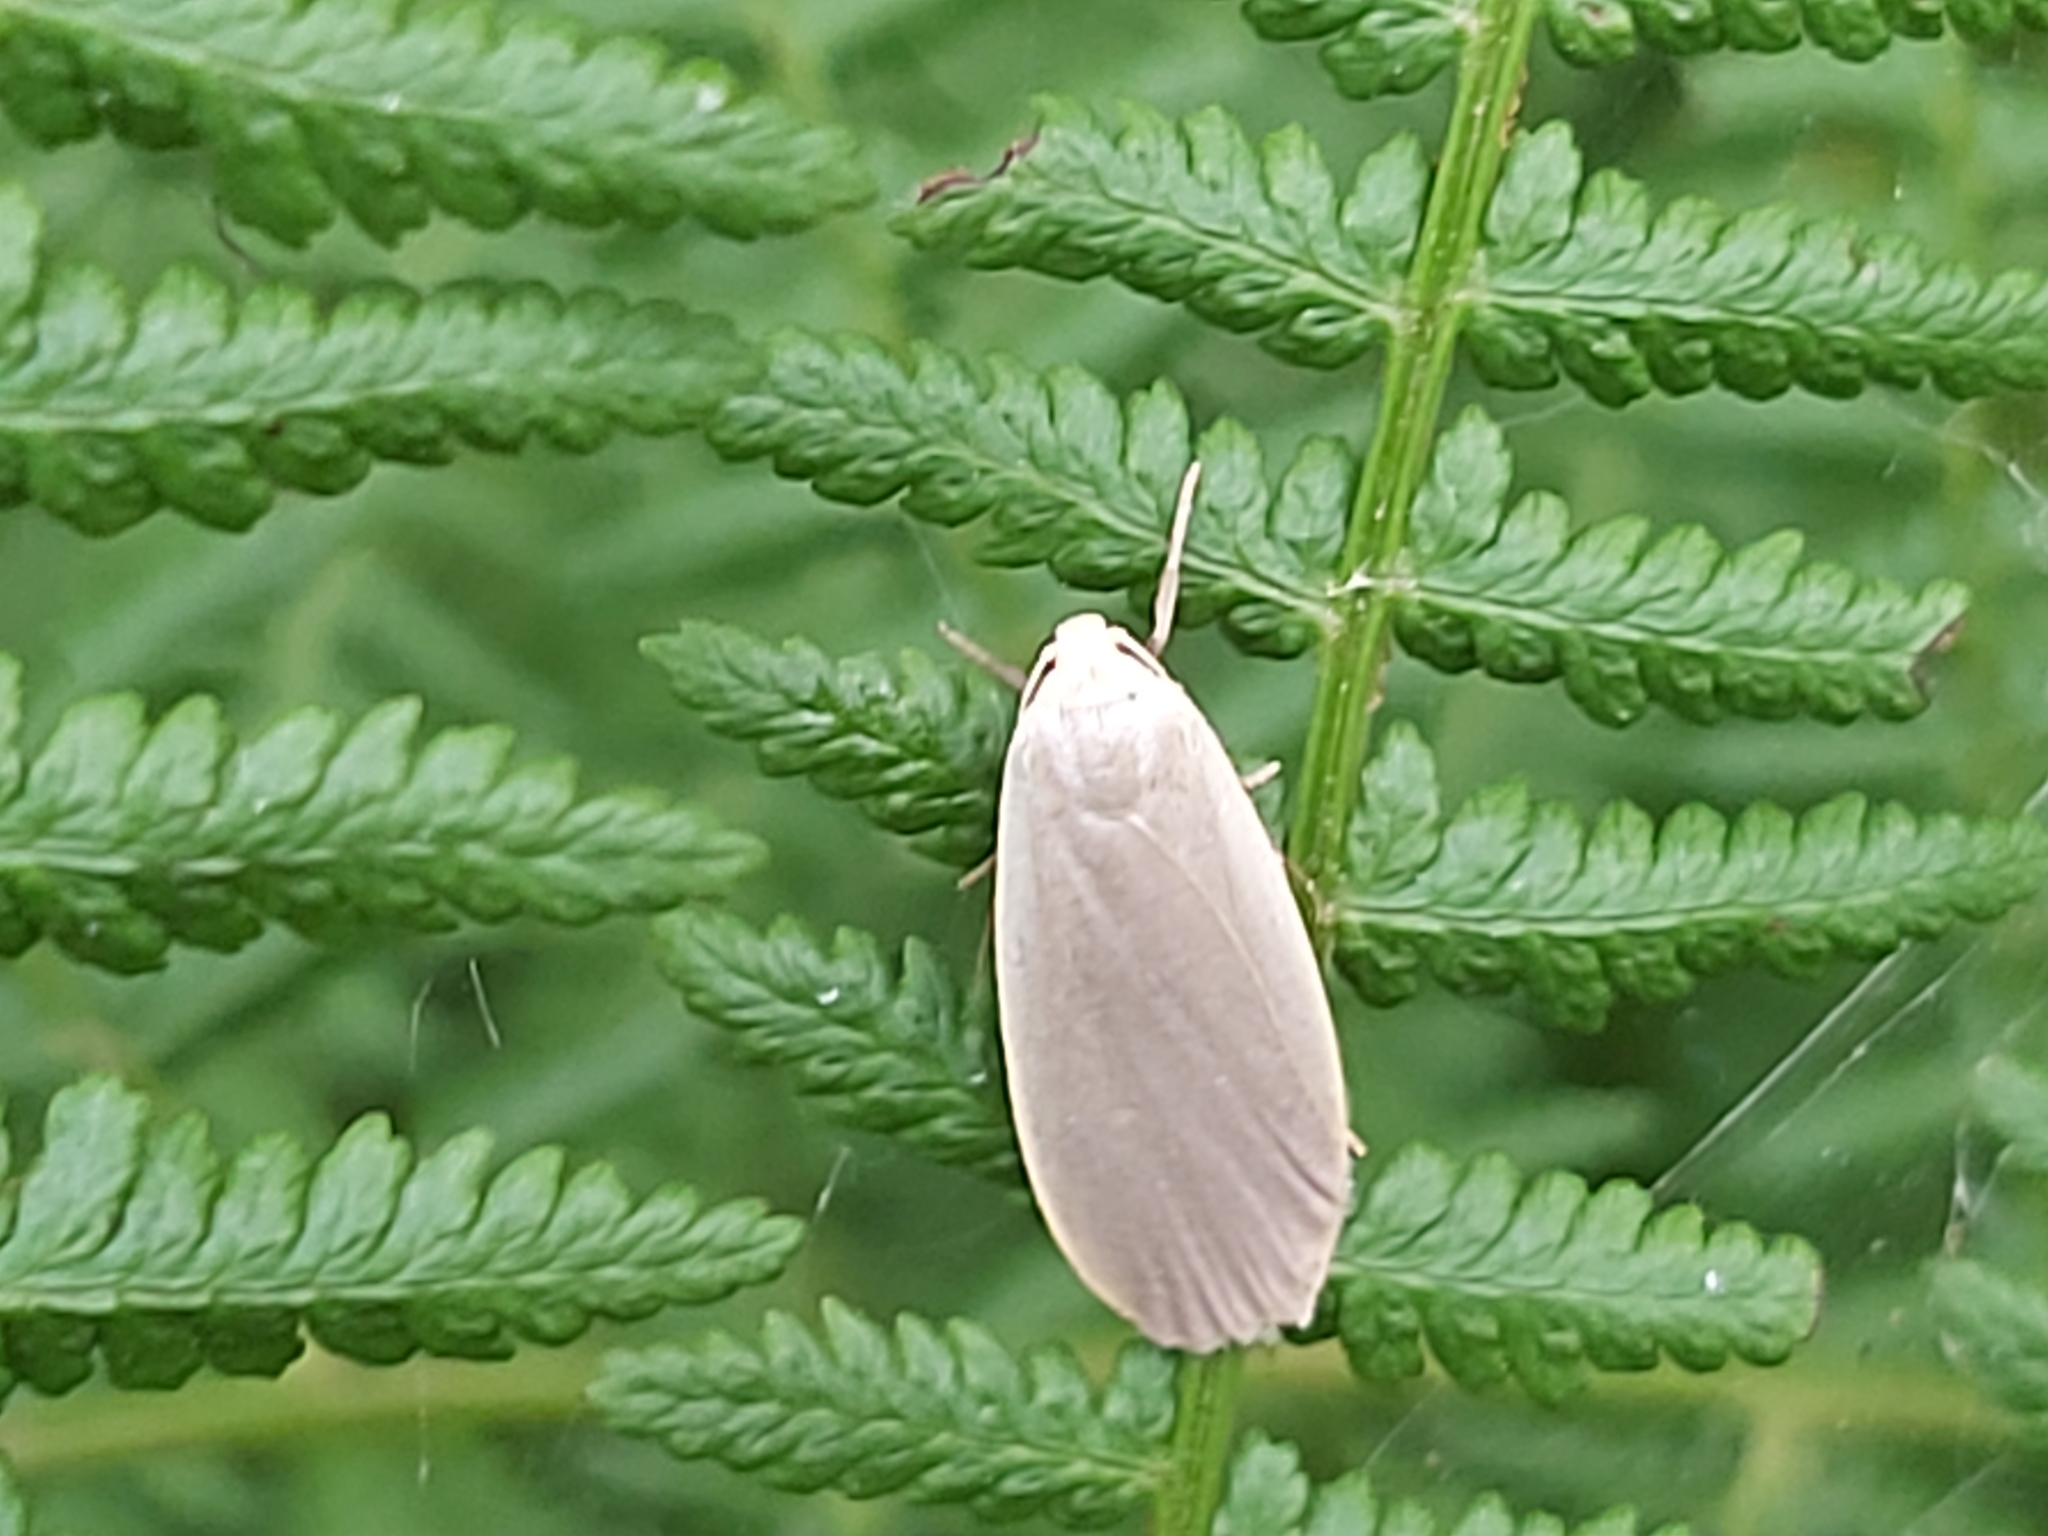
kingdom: Animalia
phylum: Arthropoda
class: Insecta
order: Lepidoptera
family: Erebidae
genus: Collita
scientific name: Collita griseola
